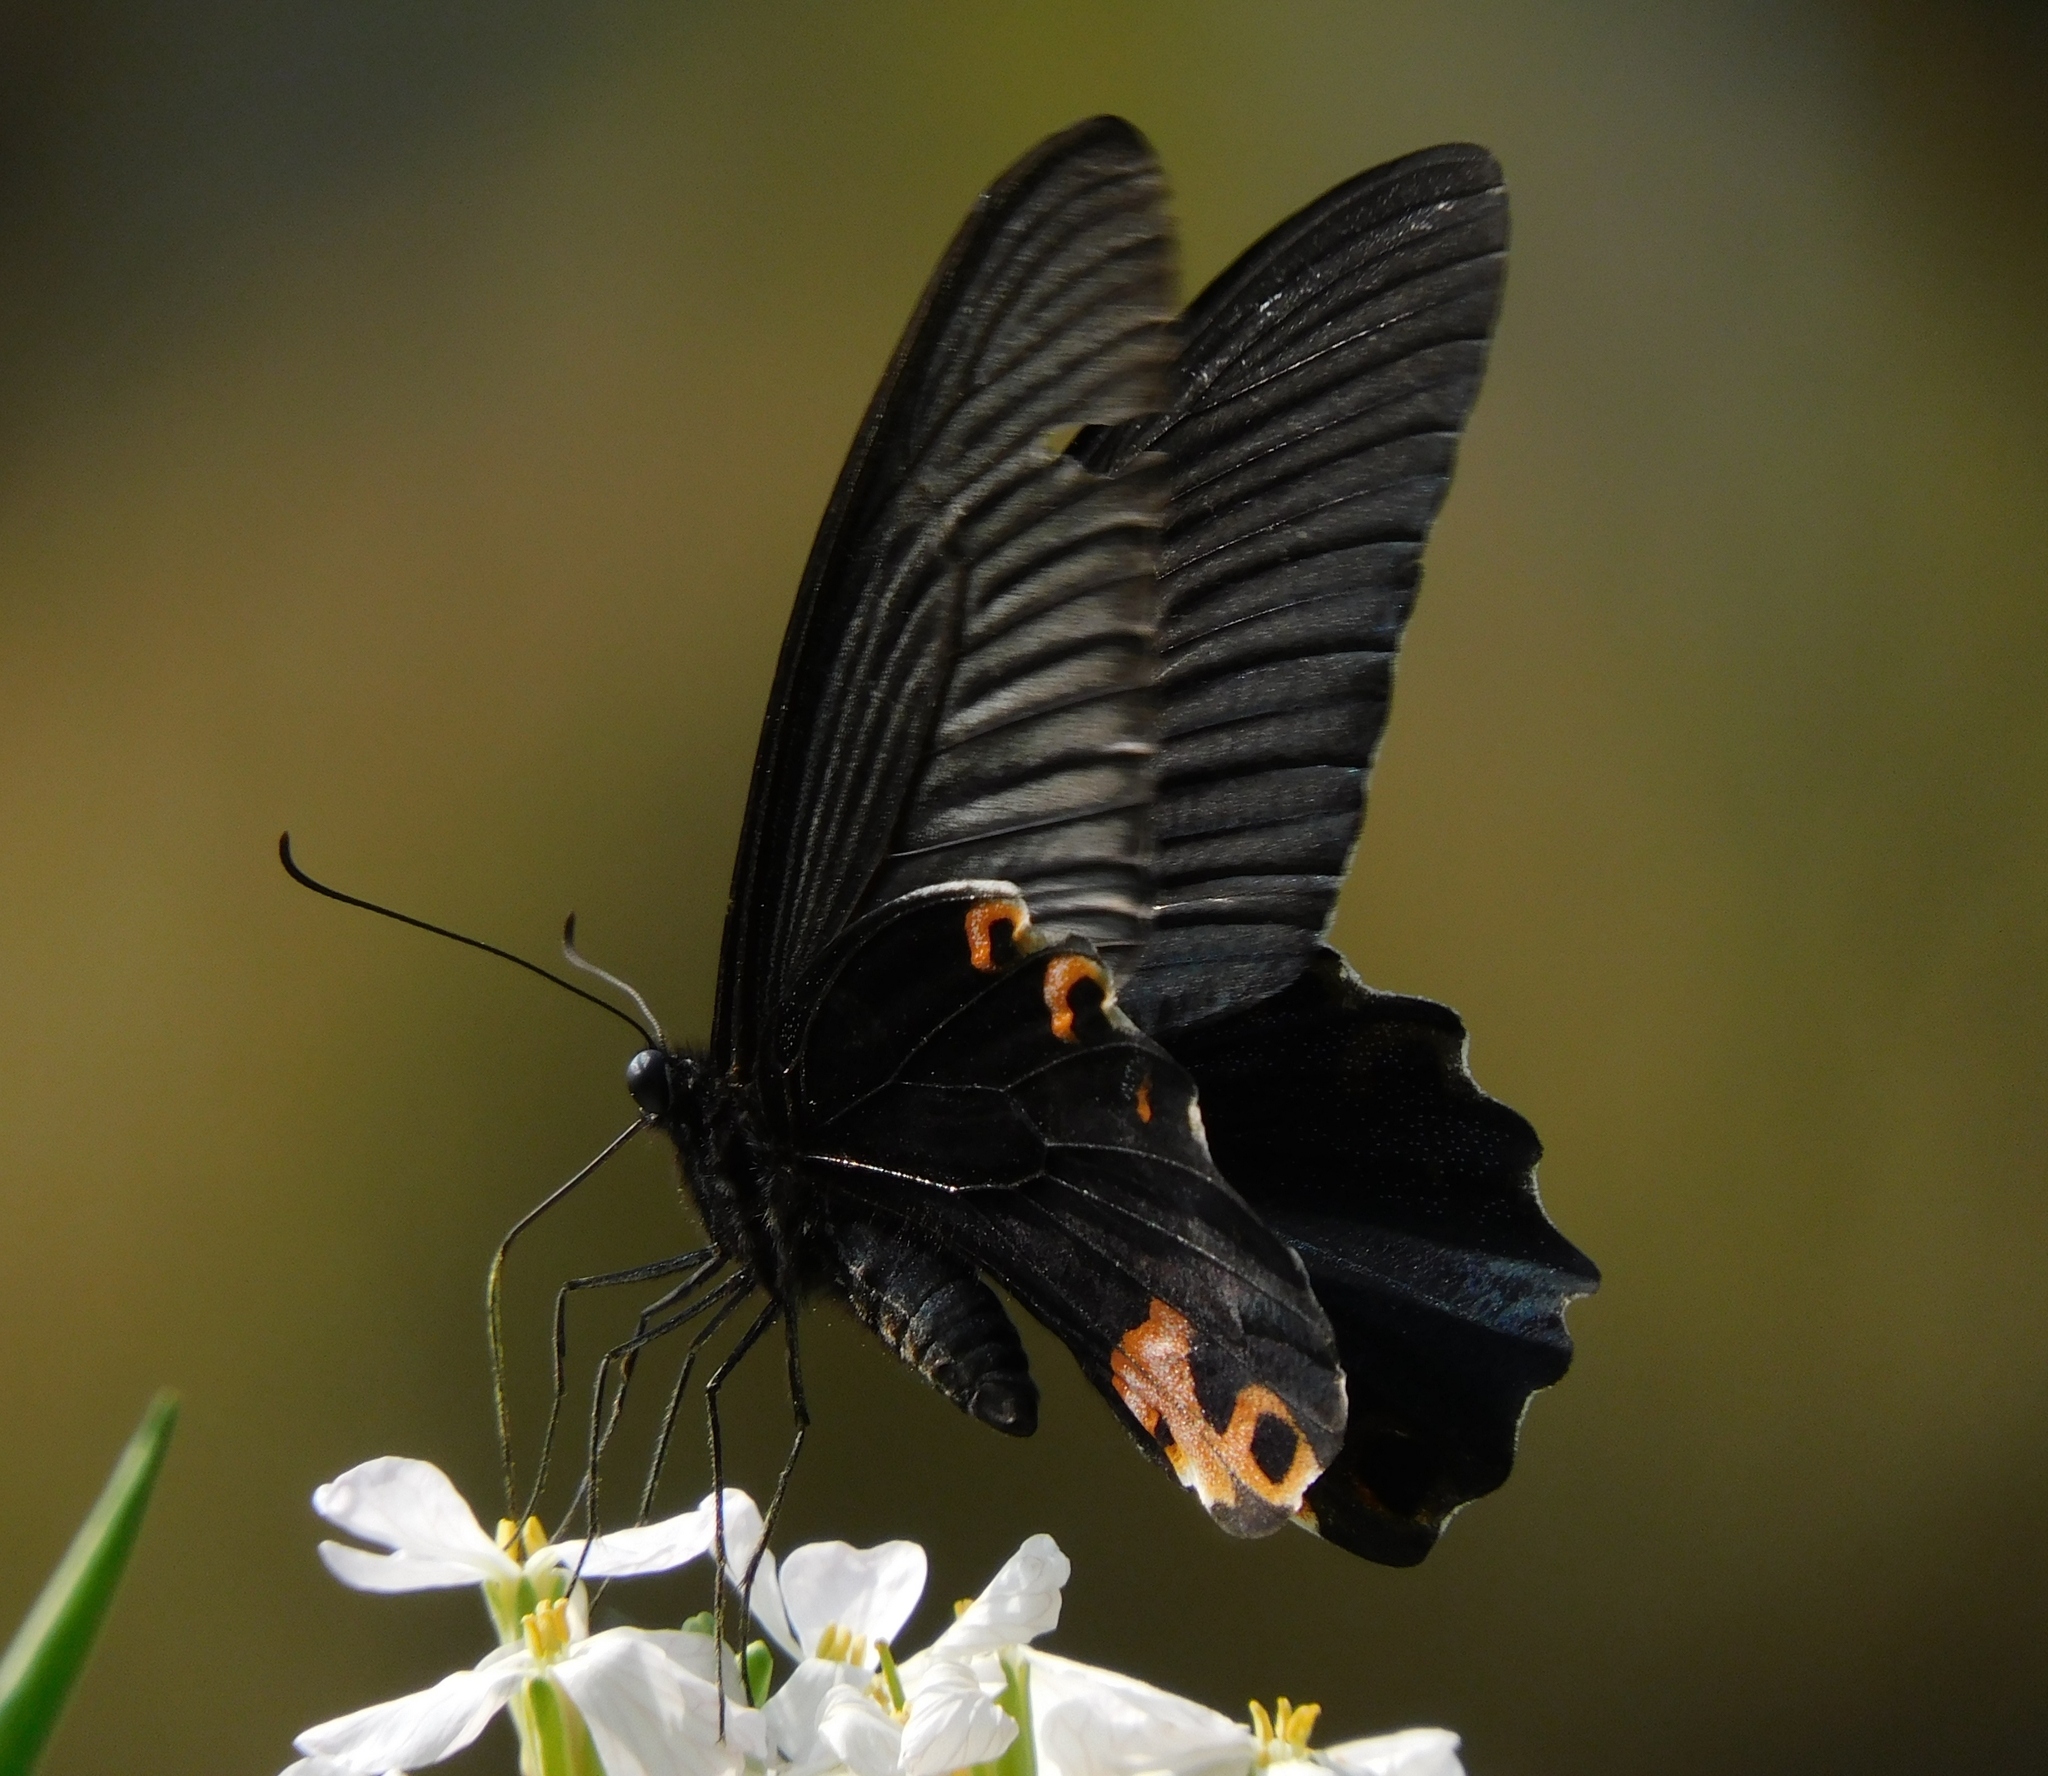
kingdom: Animalia
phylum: Arthropoda
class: Insecta
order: Lepidoptera
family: Papilionidae
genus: Papilio
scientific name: Papilio protenor
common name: Spangle
